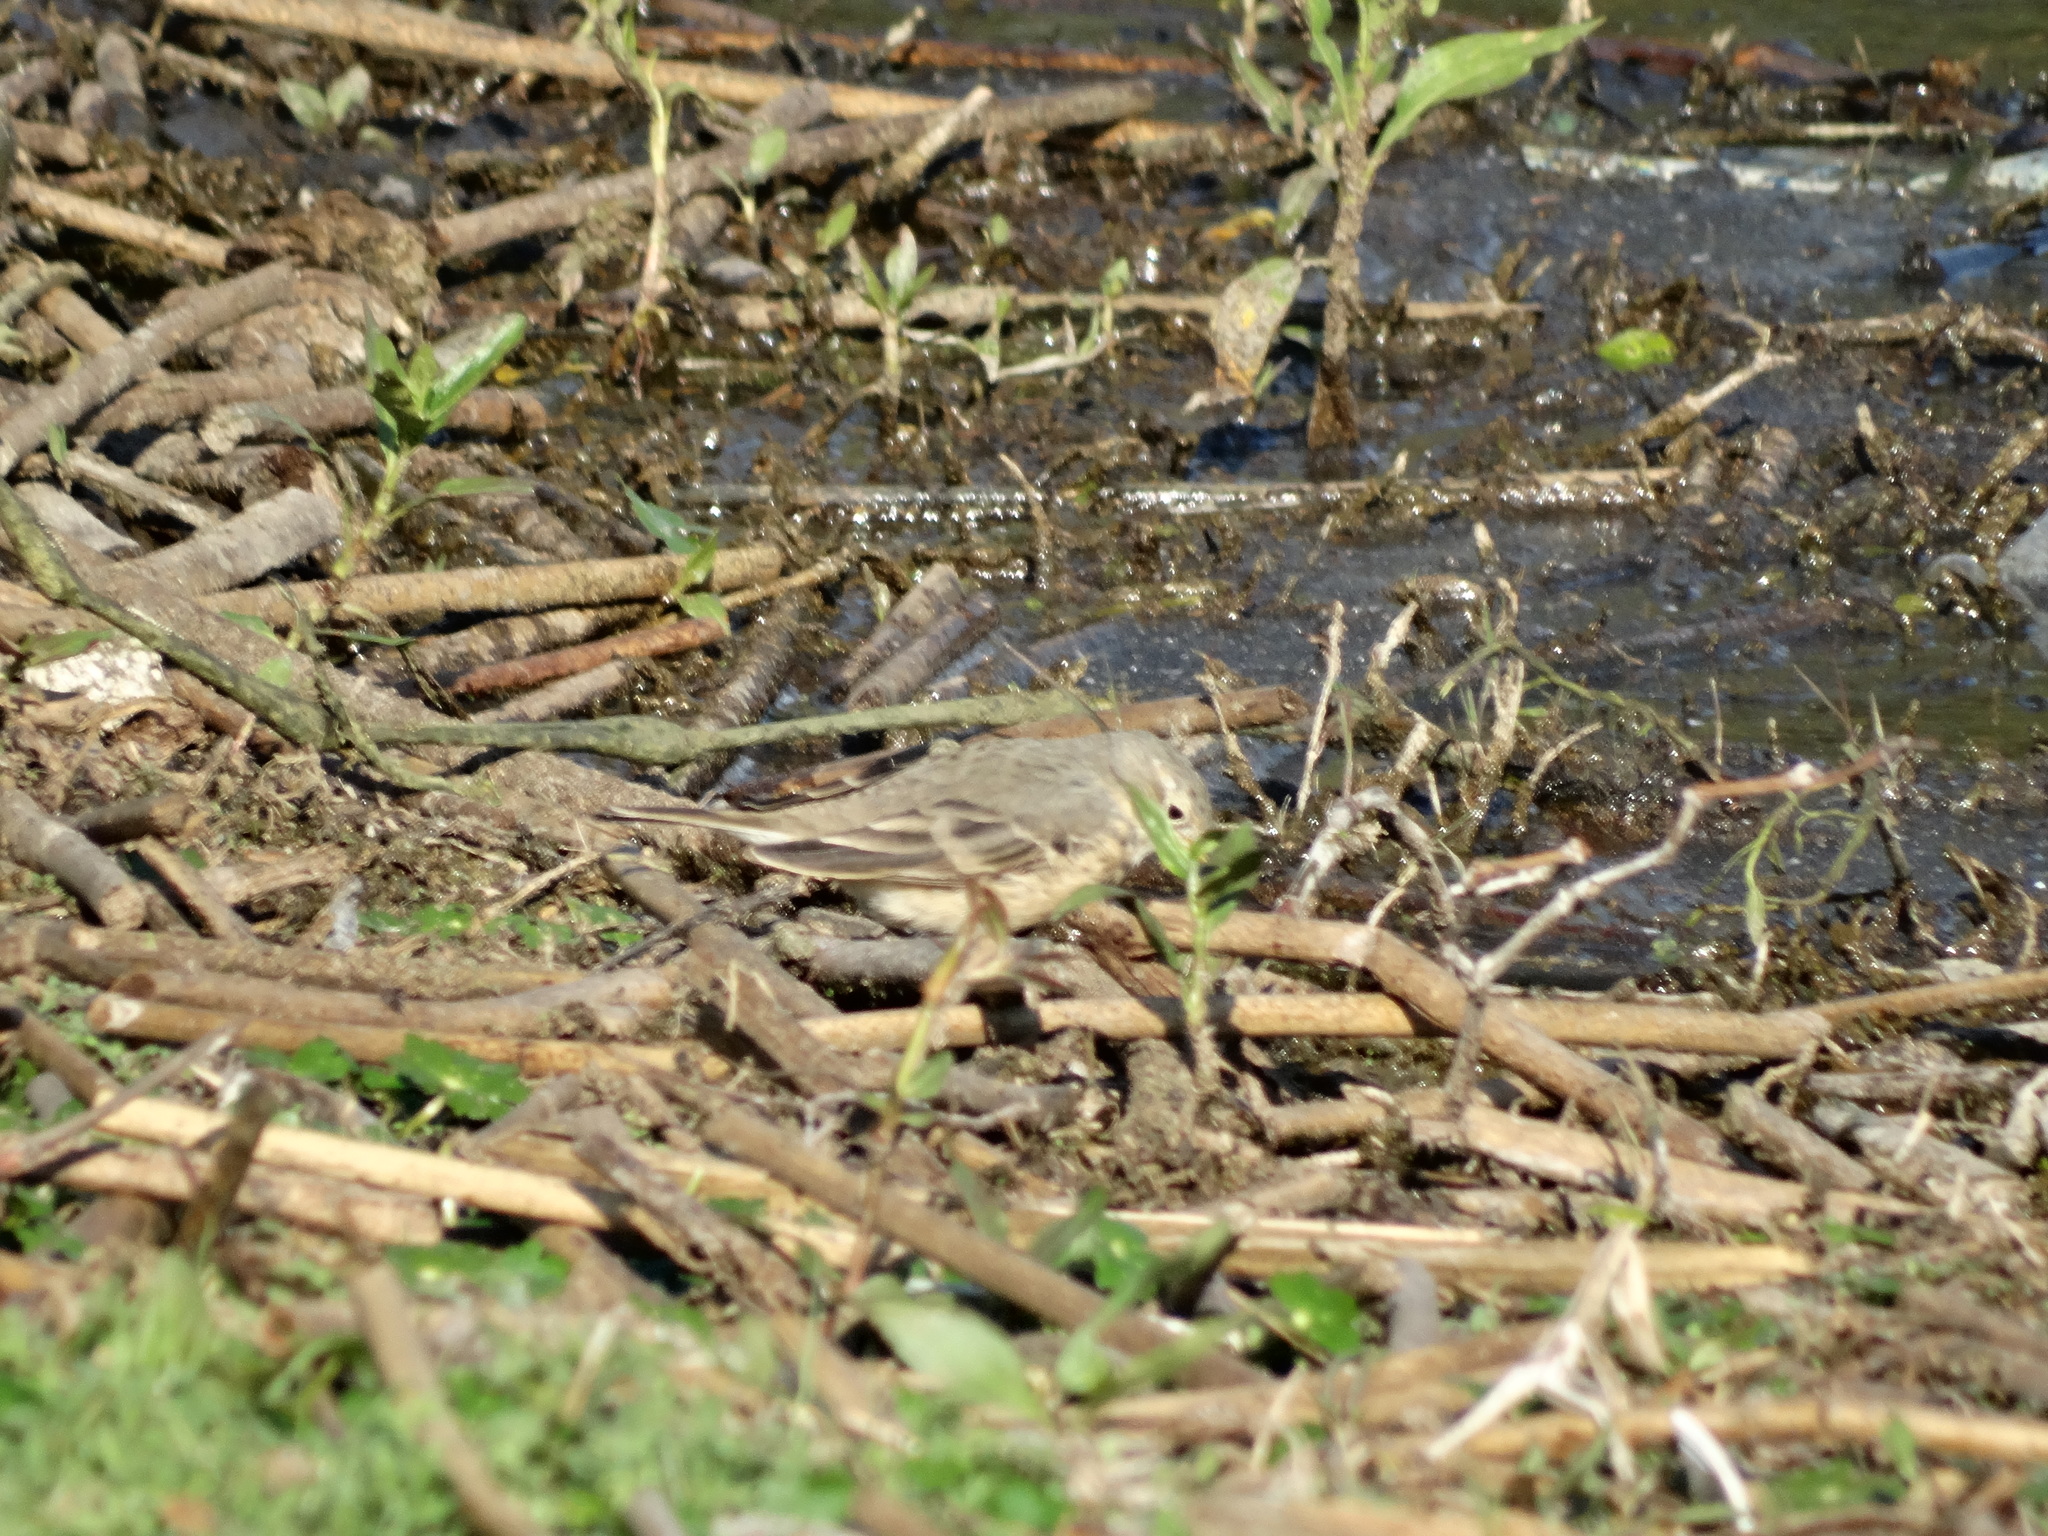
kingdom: Animalia
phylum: Chordata
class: Aves
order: Passeriformes
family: Motacillidae
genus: Anthus
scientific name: Anthus rubescens
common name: Buff-bellied pipit
